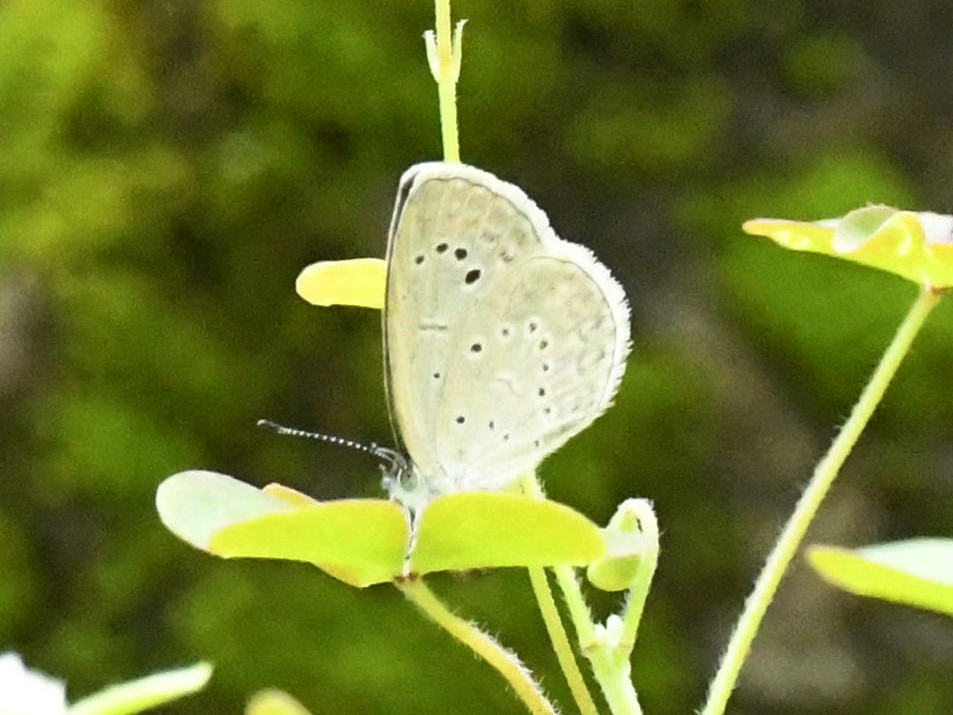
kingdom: Animalia
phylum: Arthropoda
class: Insecta
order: Lepidoptera
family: Lycaenidae
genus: Pseudozizeeria
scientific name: Pseudozizeeria maha
